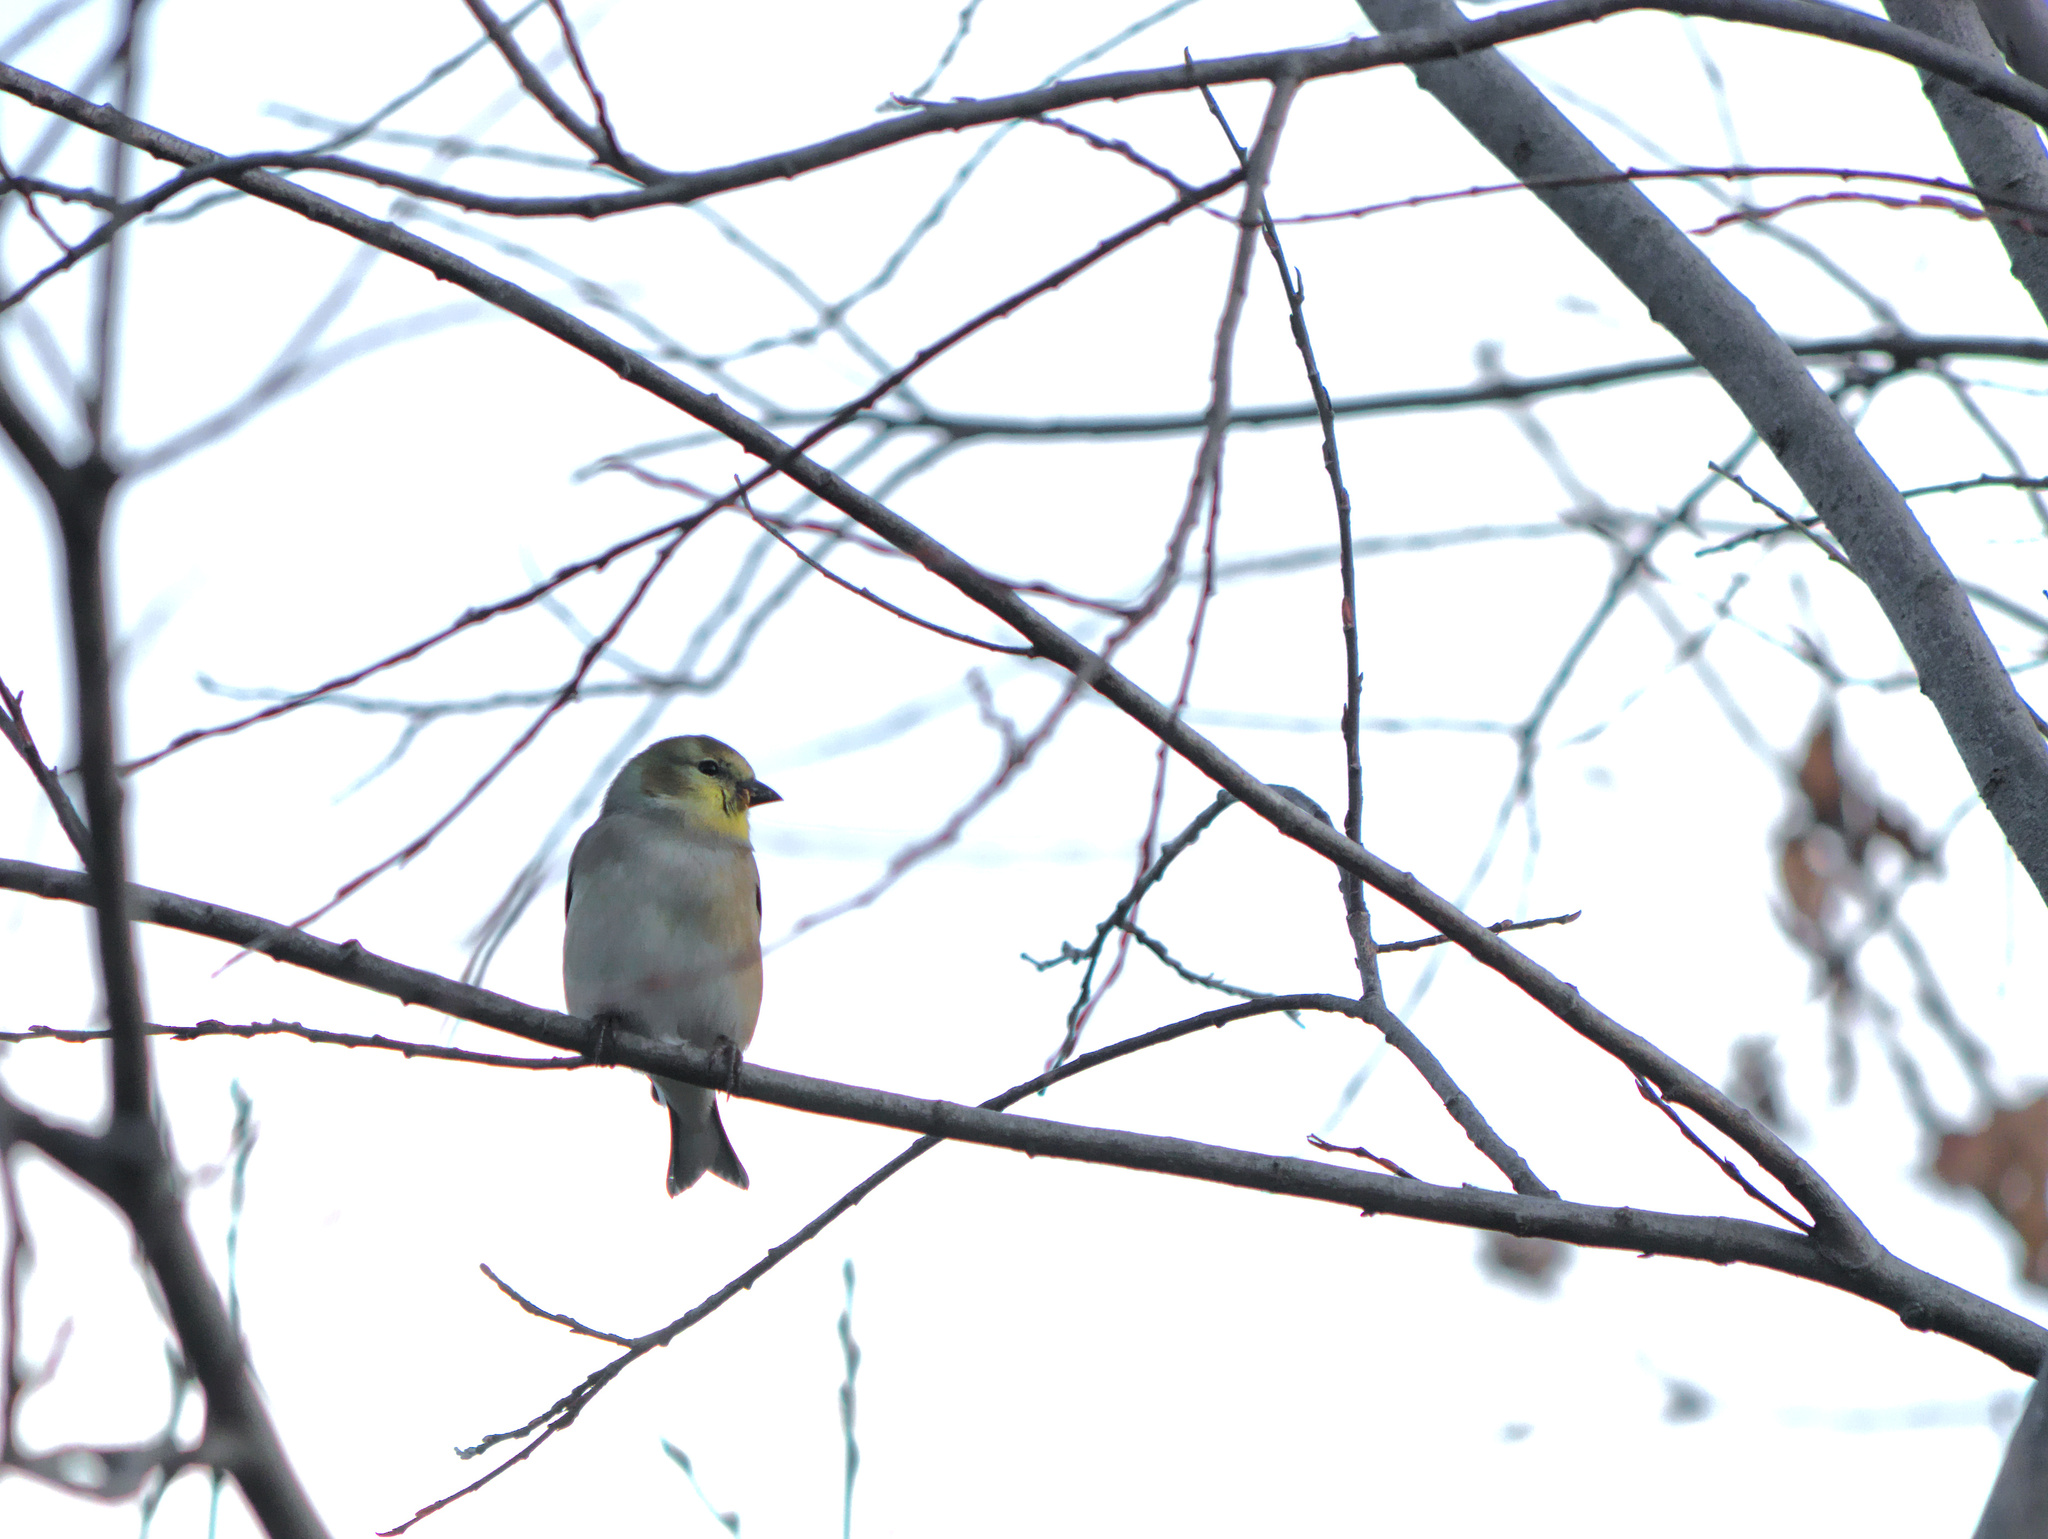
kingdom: Animalia
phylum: Chordata
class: Aves
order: Passeriformes
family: Fringillidae
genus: Spinus
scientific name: Spinus tristis
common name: American goldfinch
